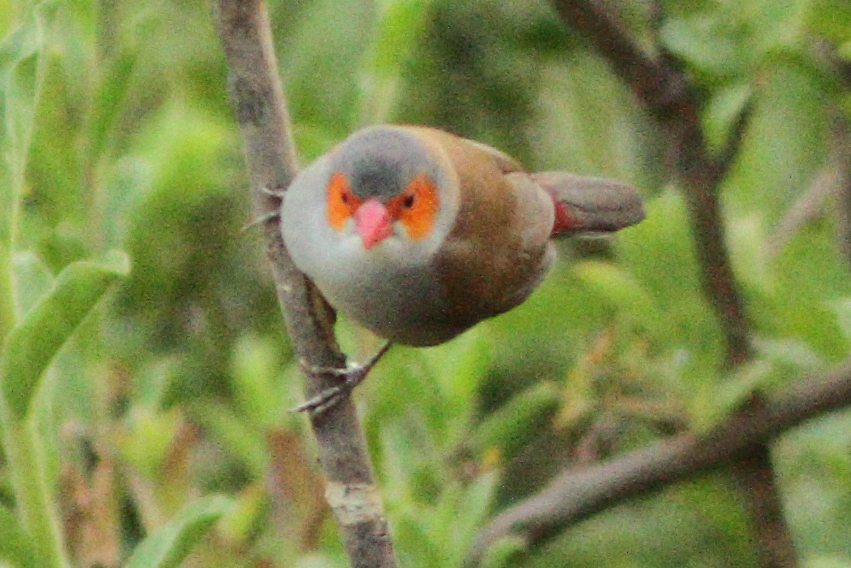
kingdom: Animalia
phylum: Chordata
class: Aves
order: Passeriformes
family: Estrildidae
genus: Estrilda
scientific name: Estrilda melpoda
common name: Orange-cheeked waxbill
